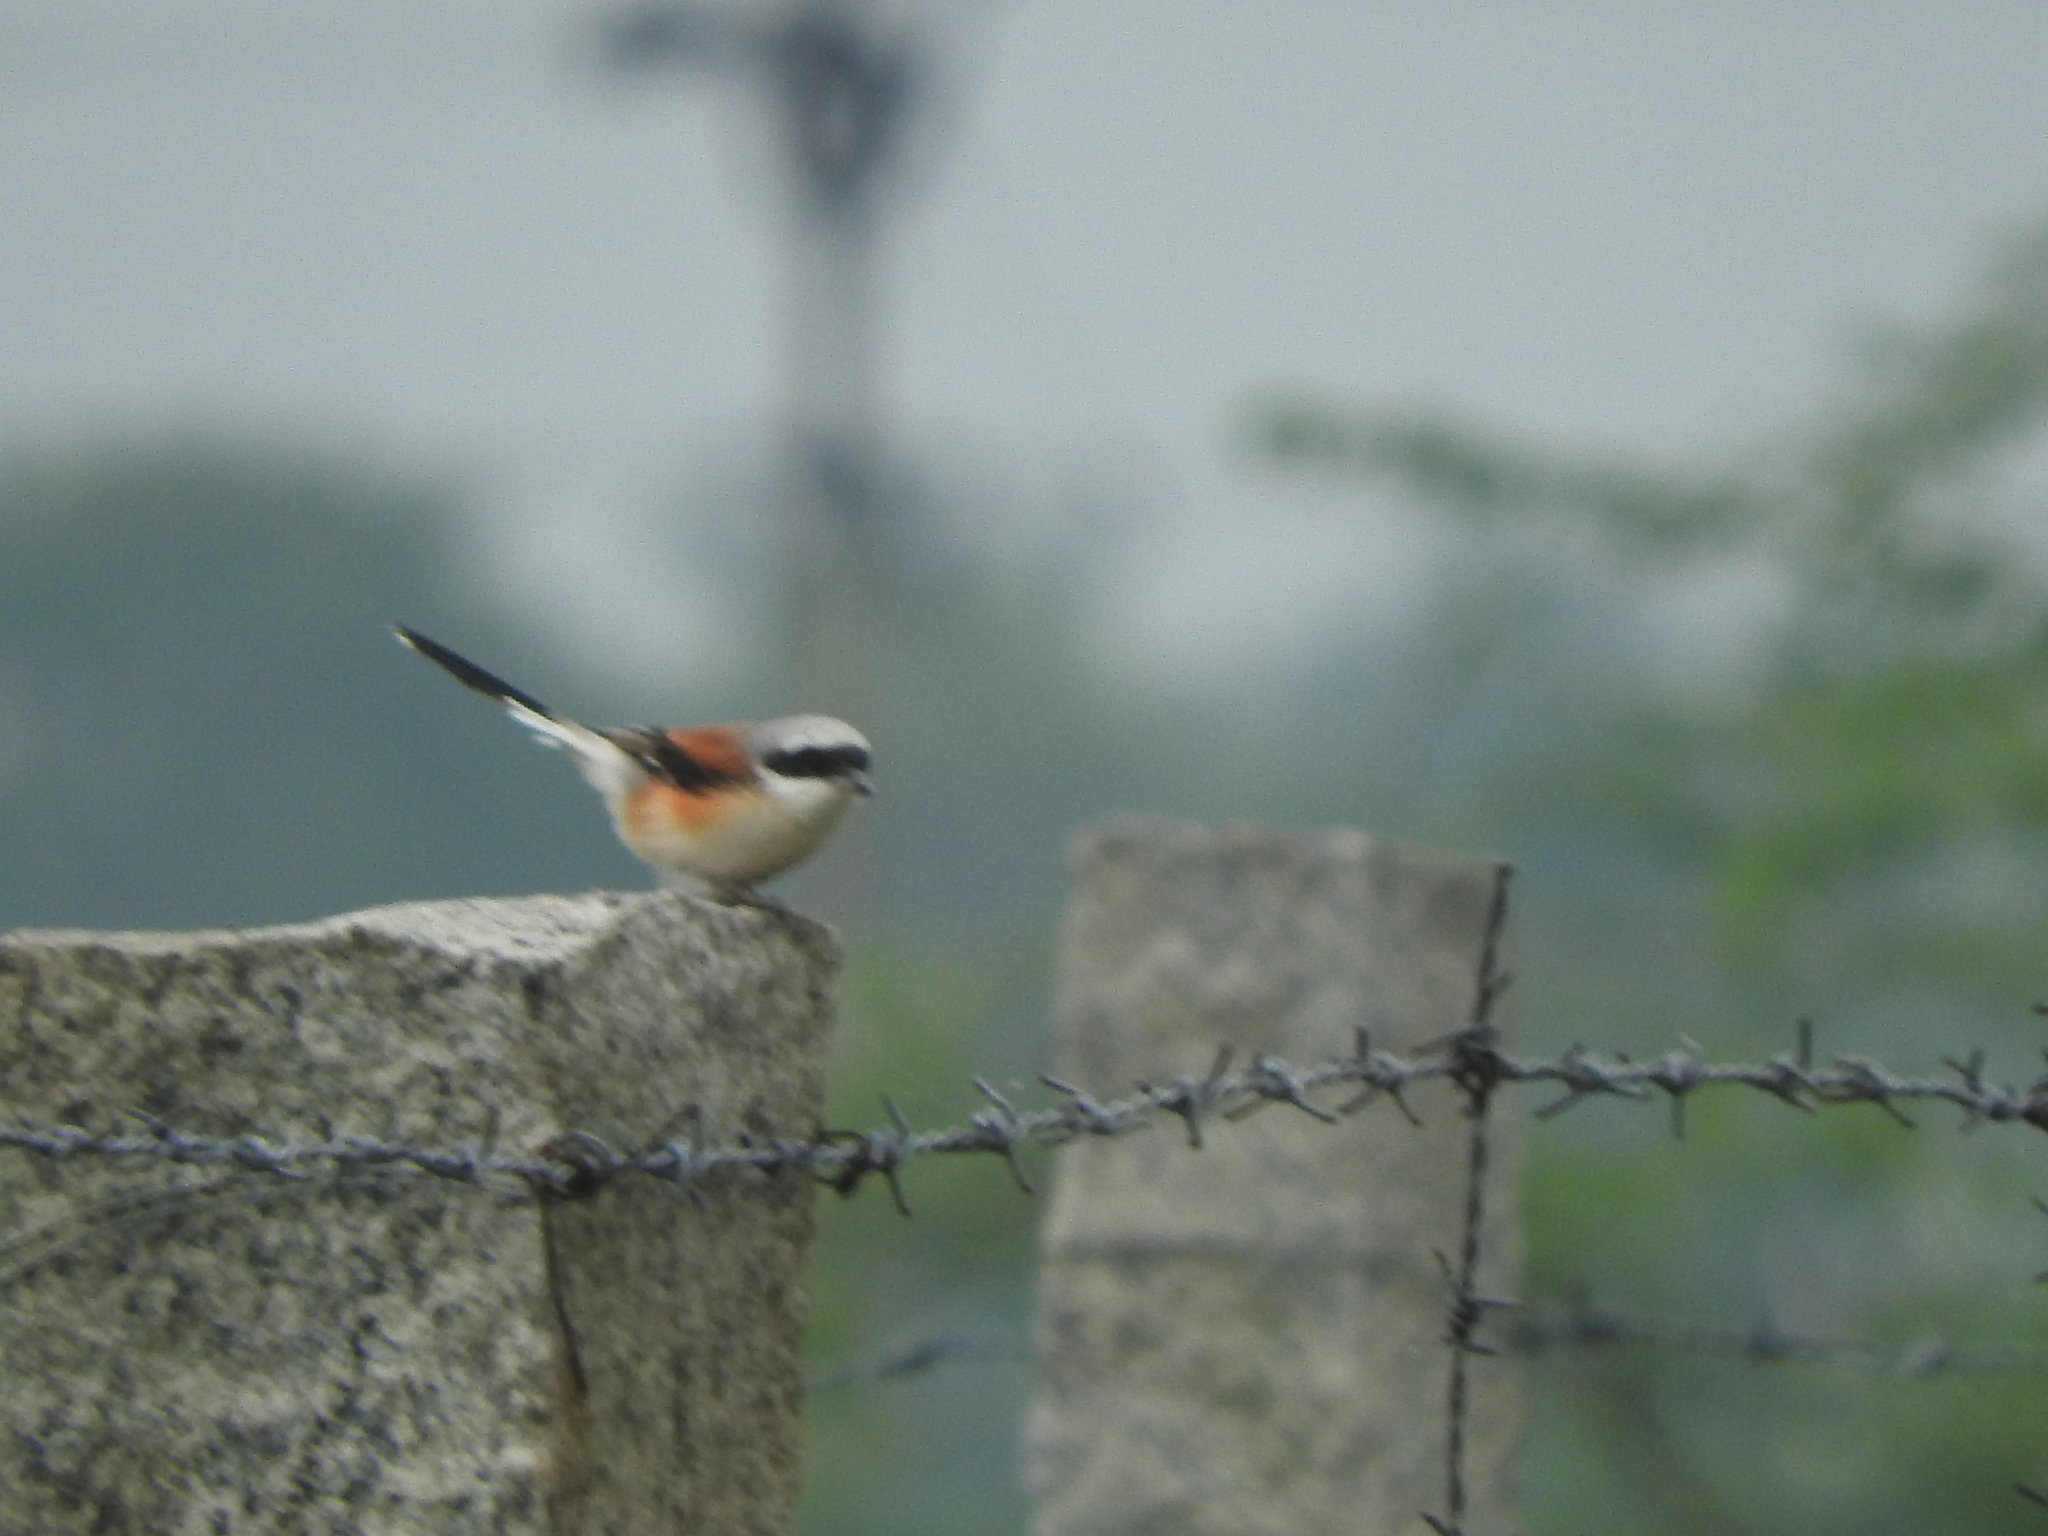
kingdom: Animalia
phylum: Chordata
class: Aves
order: Passeriformes
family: Laniidae
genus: Lanius
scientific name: Lanius vittatus
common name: Bay-backed shrike
